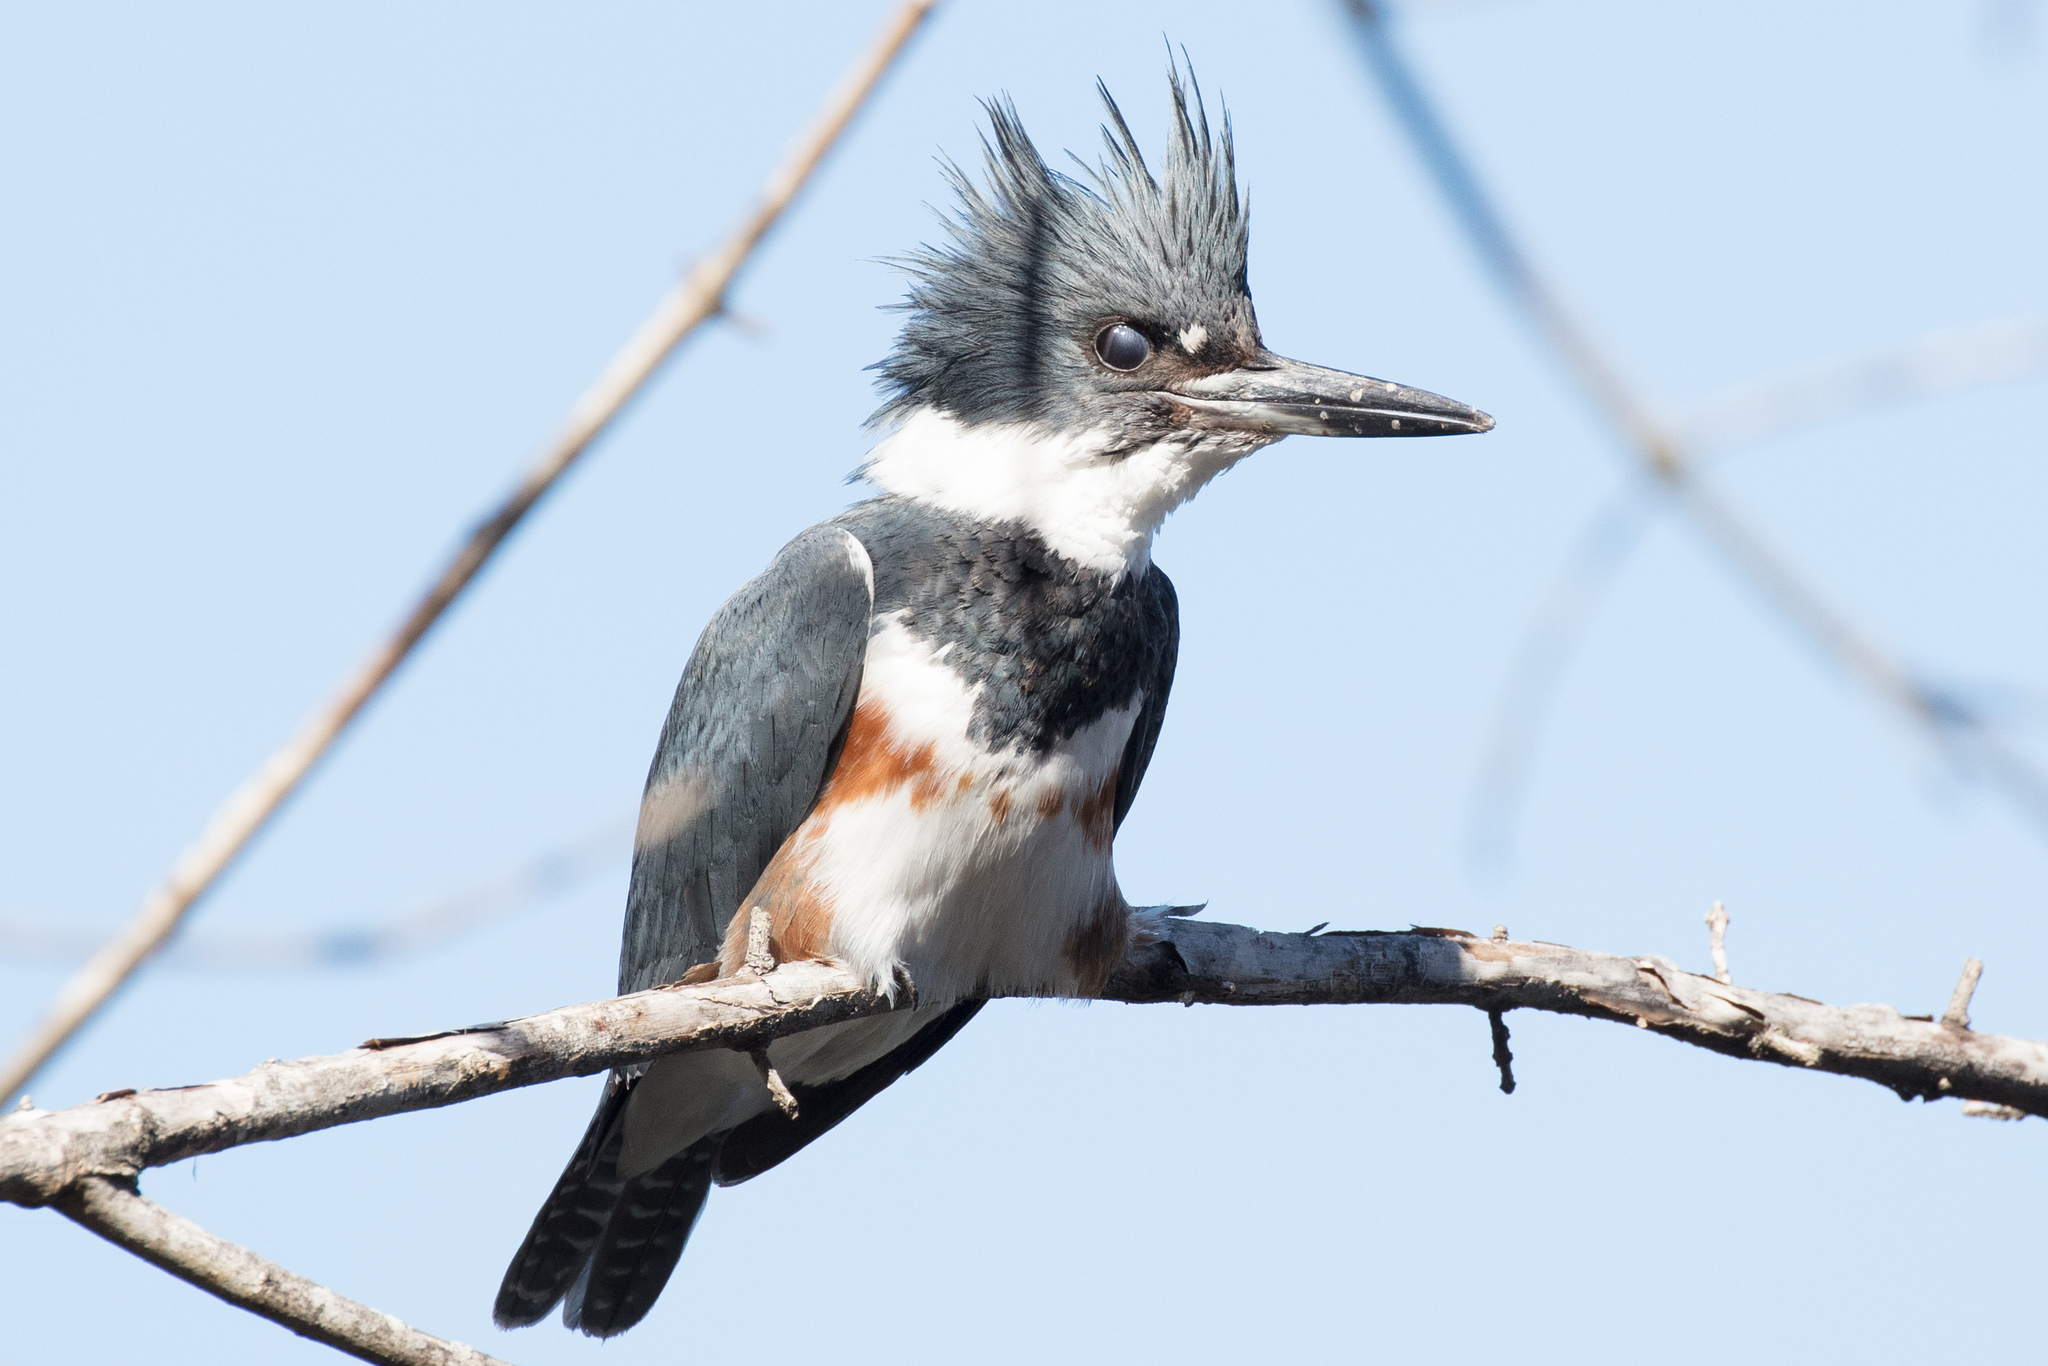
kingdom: Animalia
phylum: Chordata
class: Aves
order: Coraciiformes
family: Alcedinidae
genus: Megaceryle
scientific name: Megaceryle alcyon
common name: Belted kingfisher
